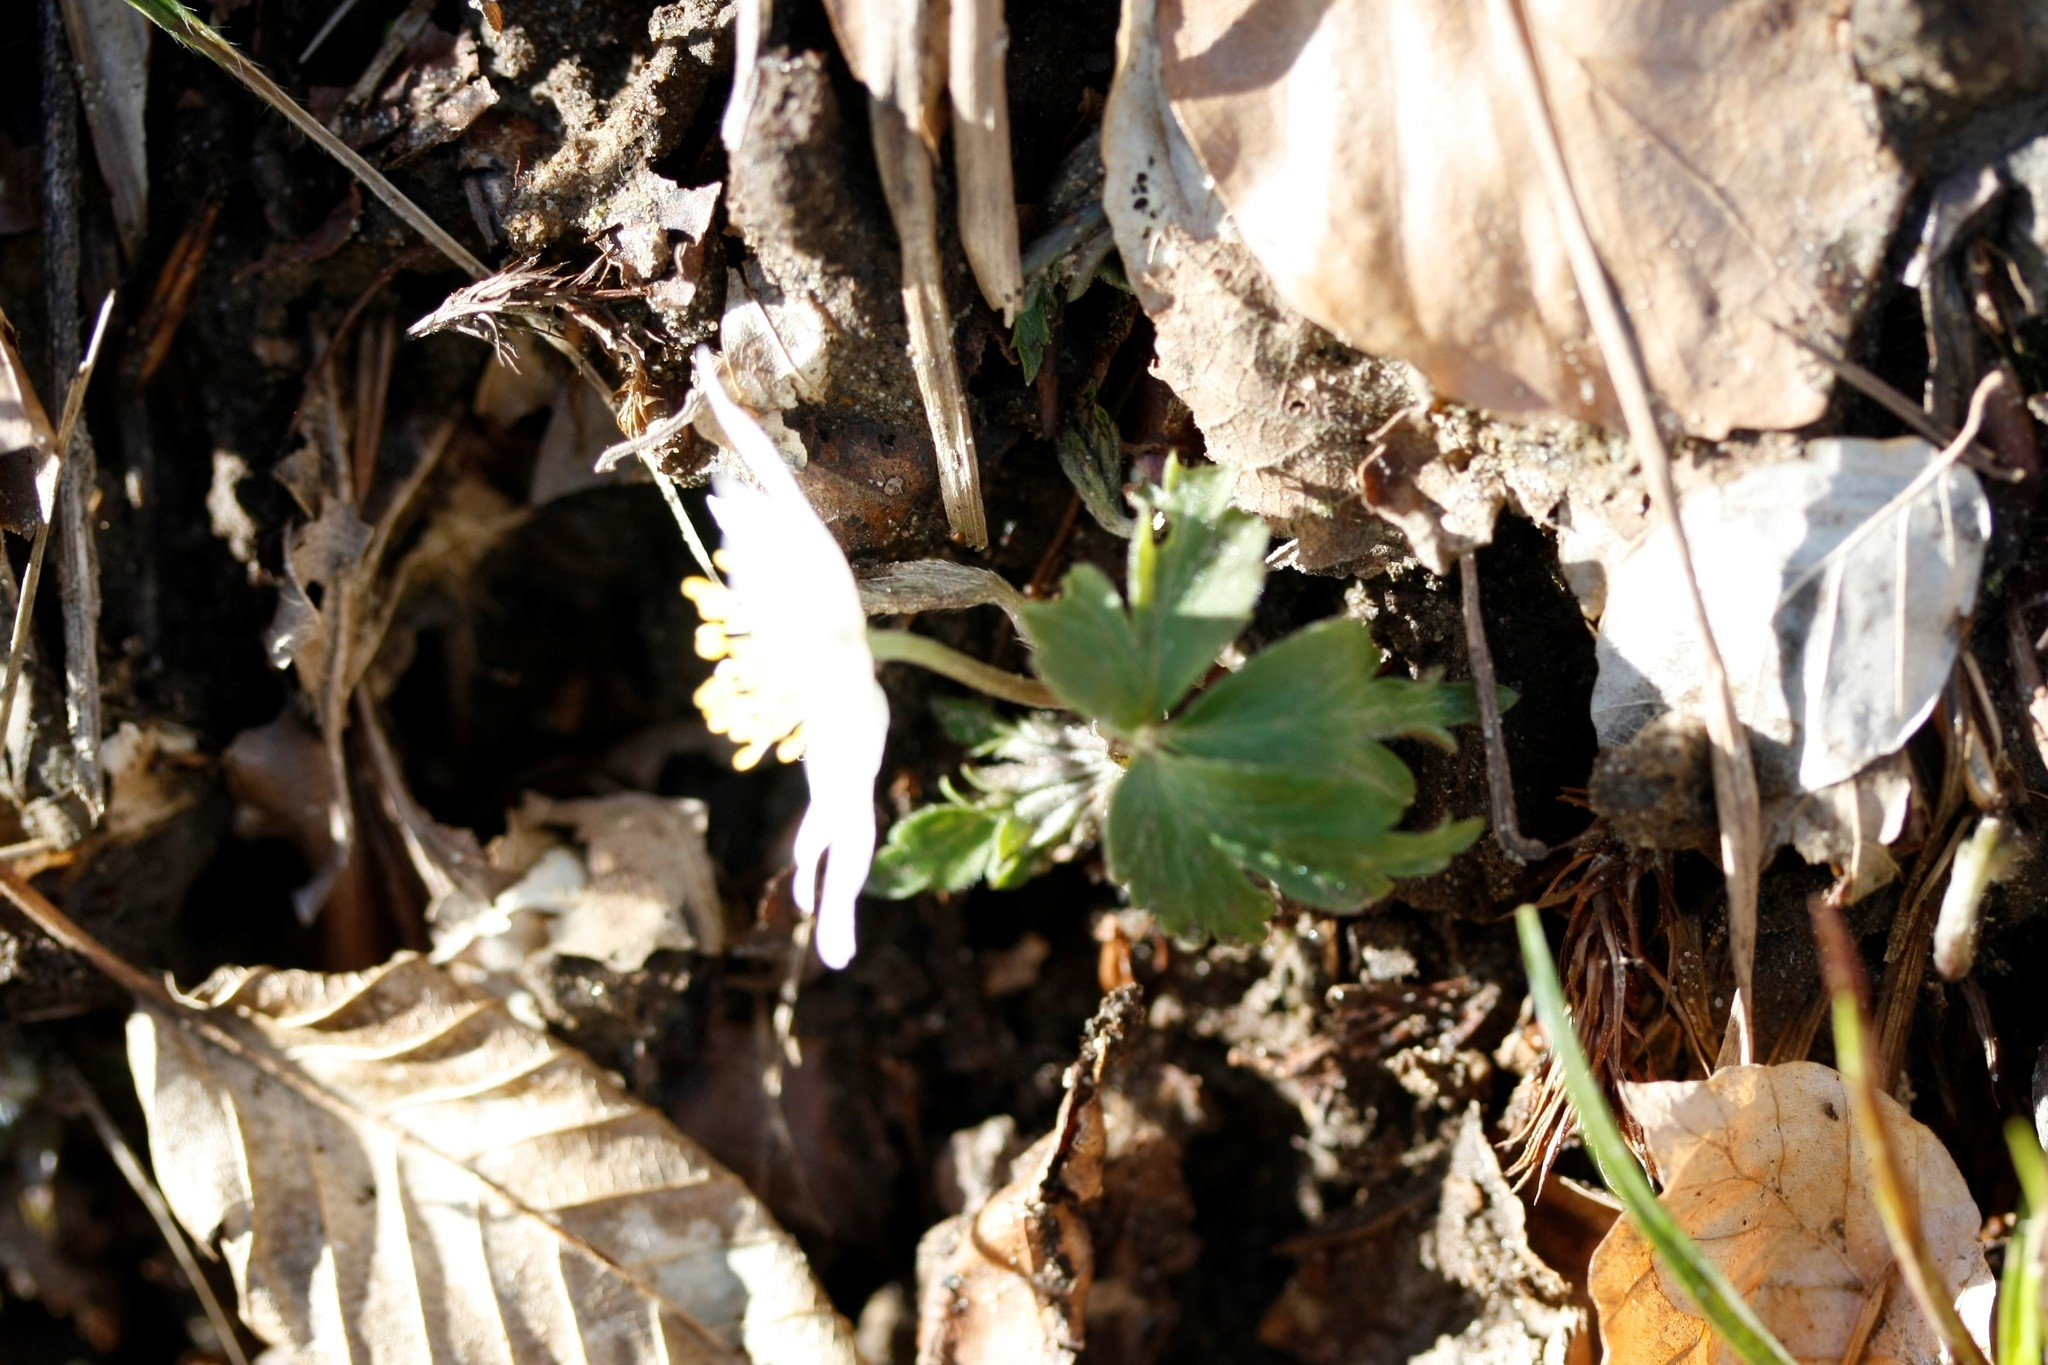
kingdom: Plantae
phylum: Tracheophyta
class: Magnoliopsida
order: Ranunculales
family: Ranunculaceae
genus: Anemone
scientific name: Anemone nemorosa
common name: Wood anemone
